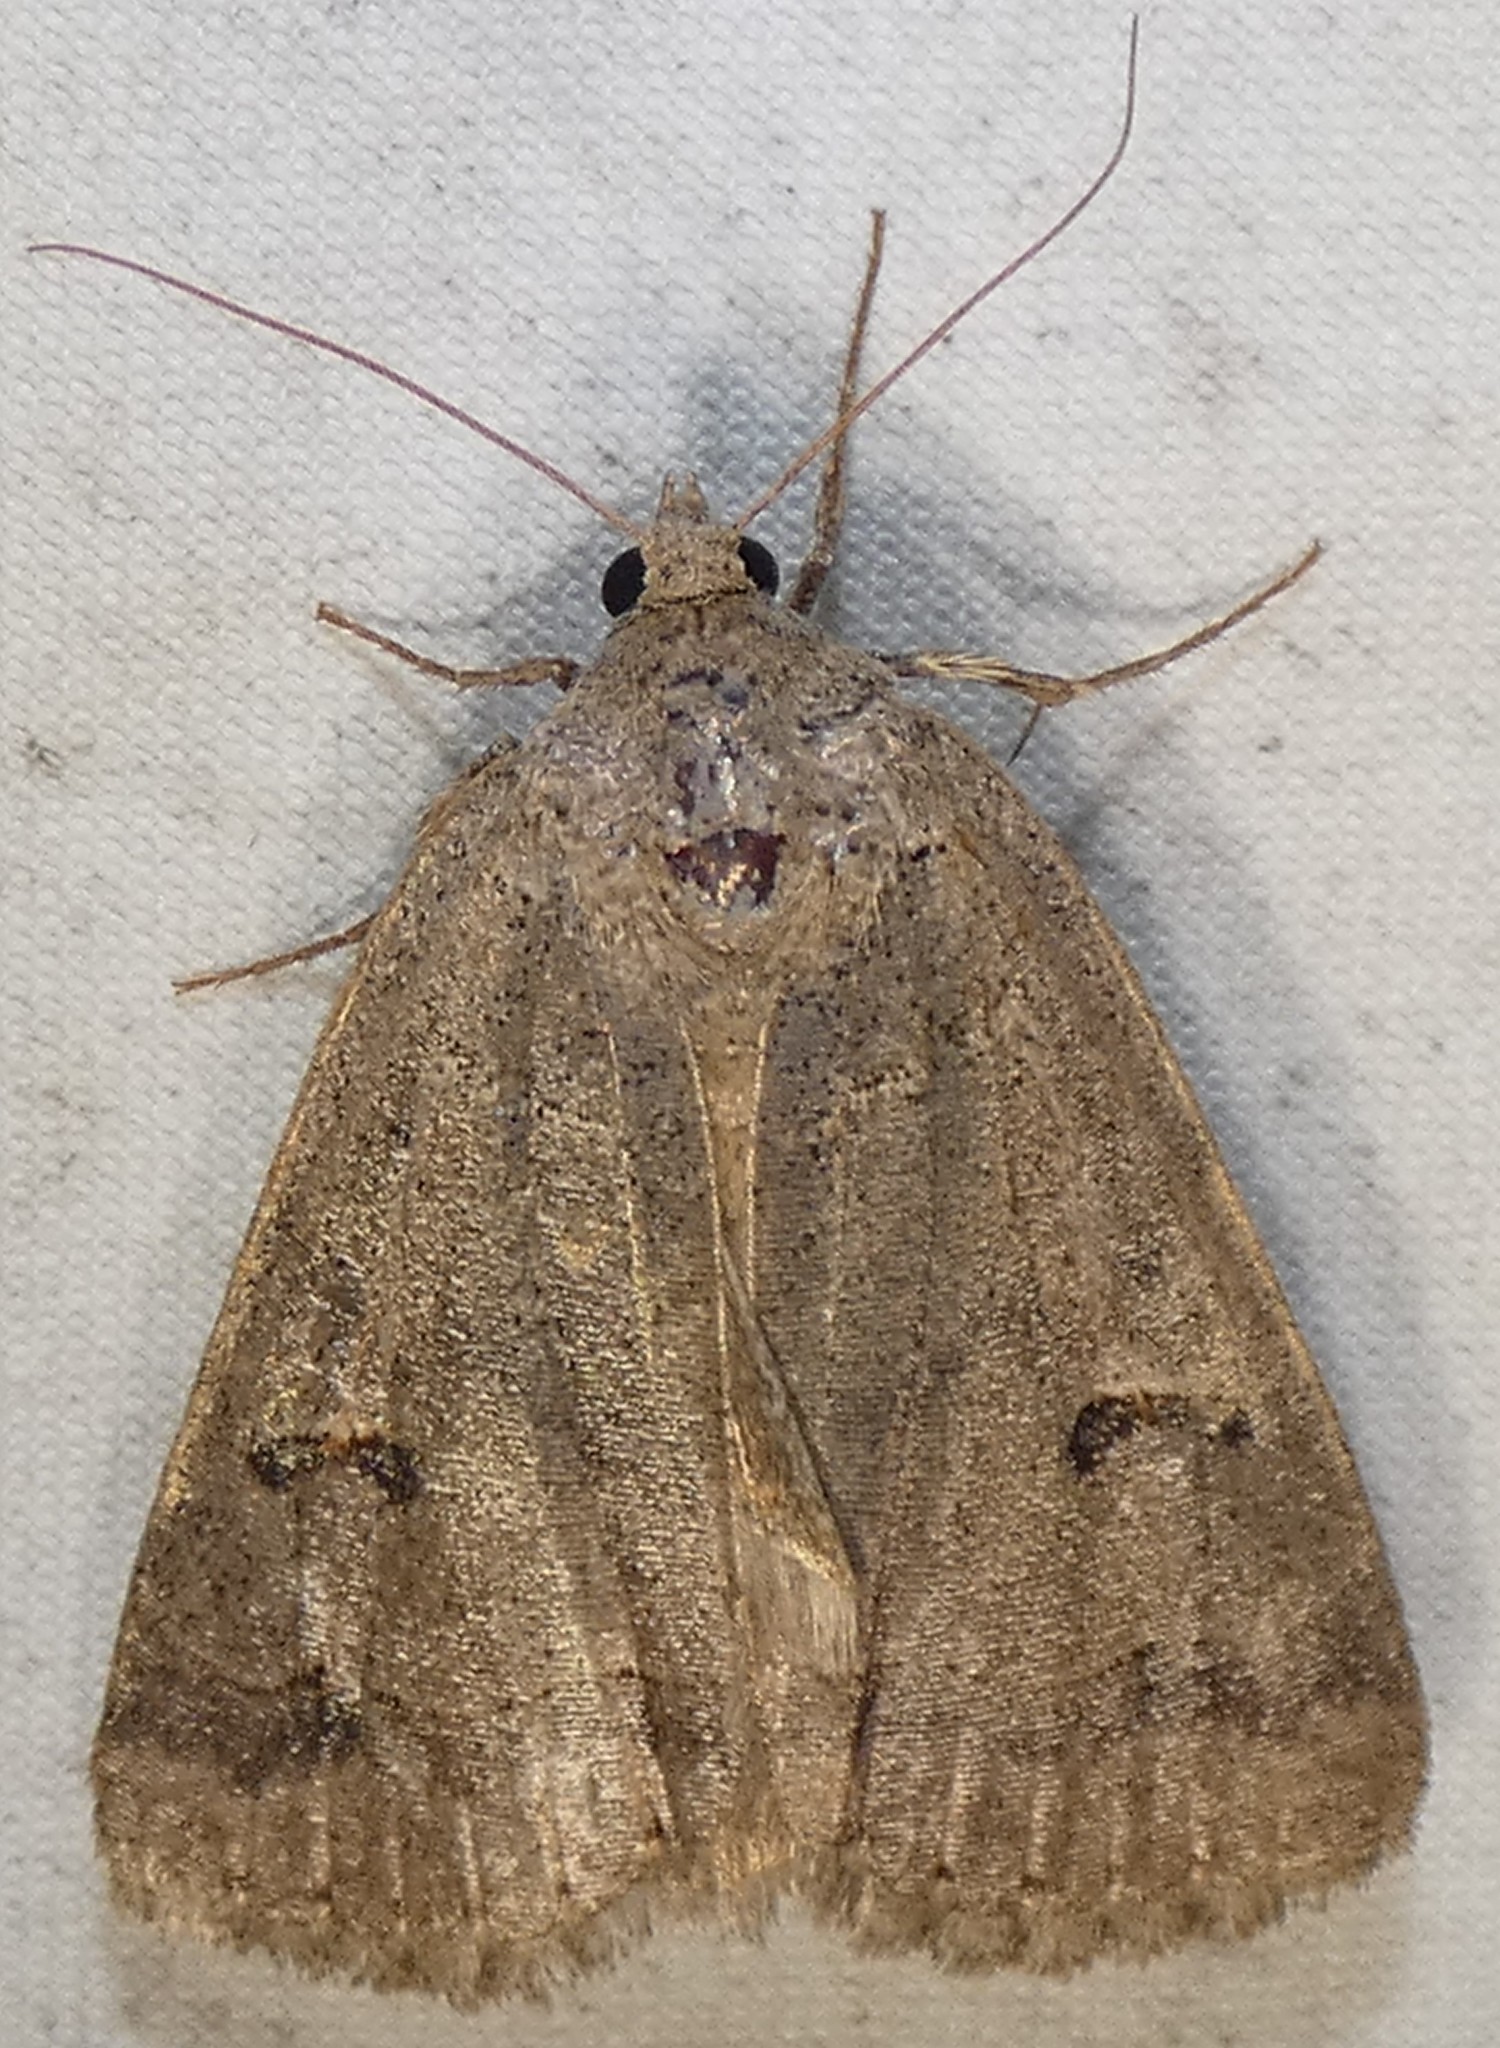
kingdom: Animalia
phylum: Arthropoda
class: Insecta
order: Lepidoptera
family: Erebidae
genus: Phoberia
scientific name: Phoberia atomaris
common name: Common oak moth
